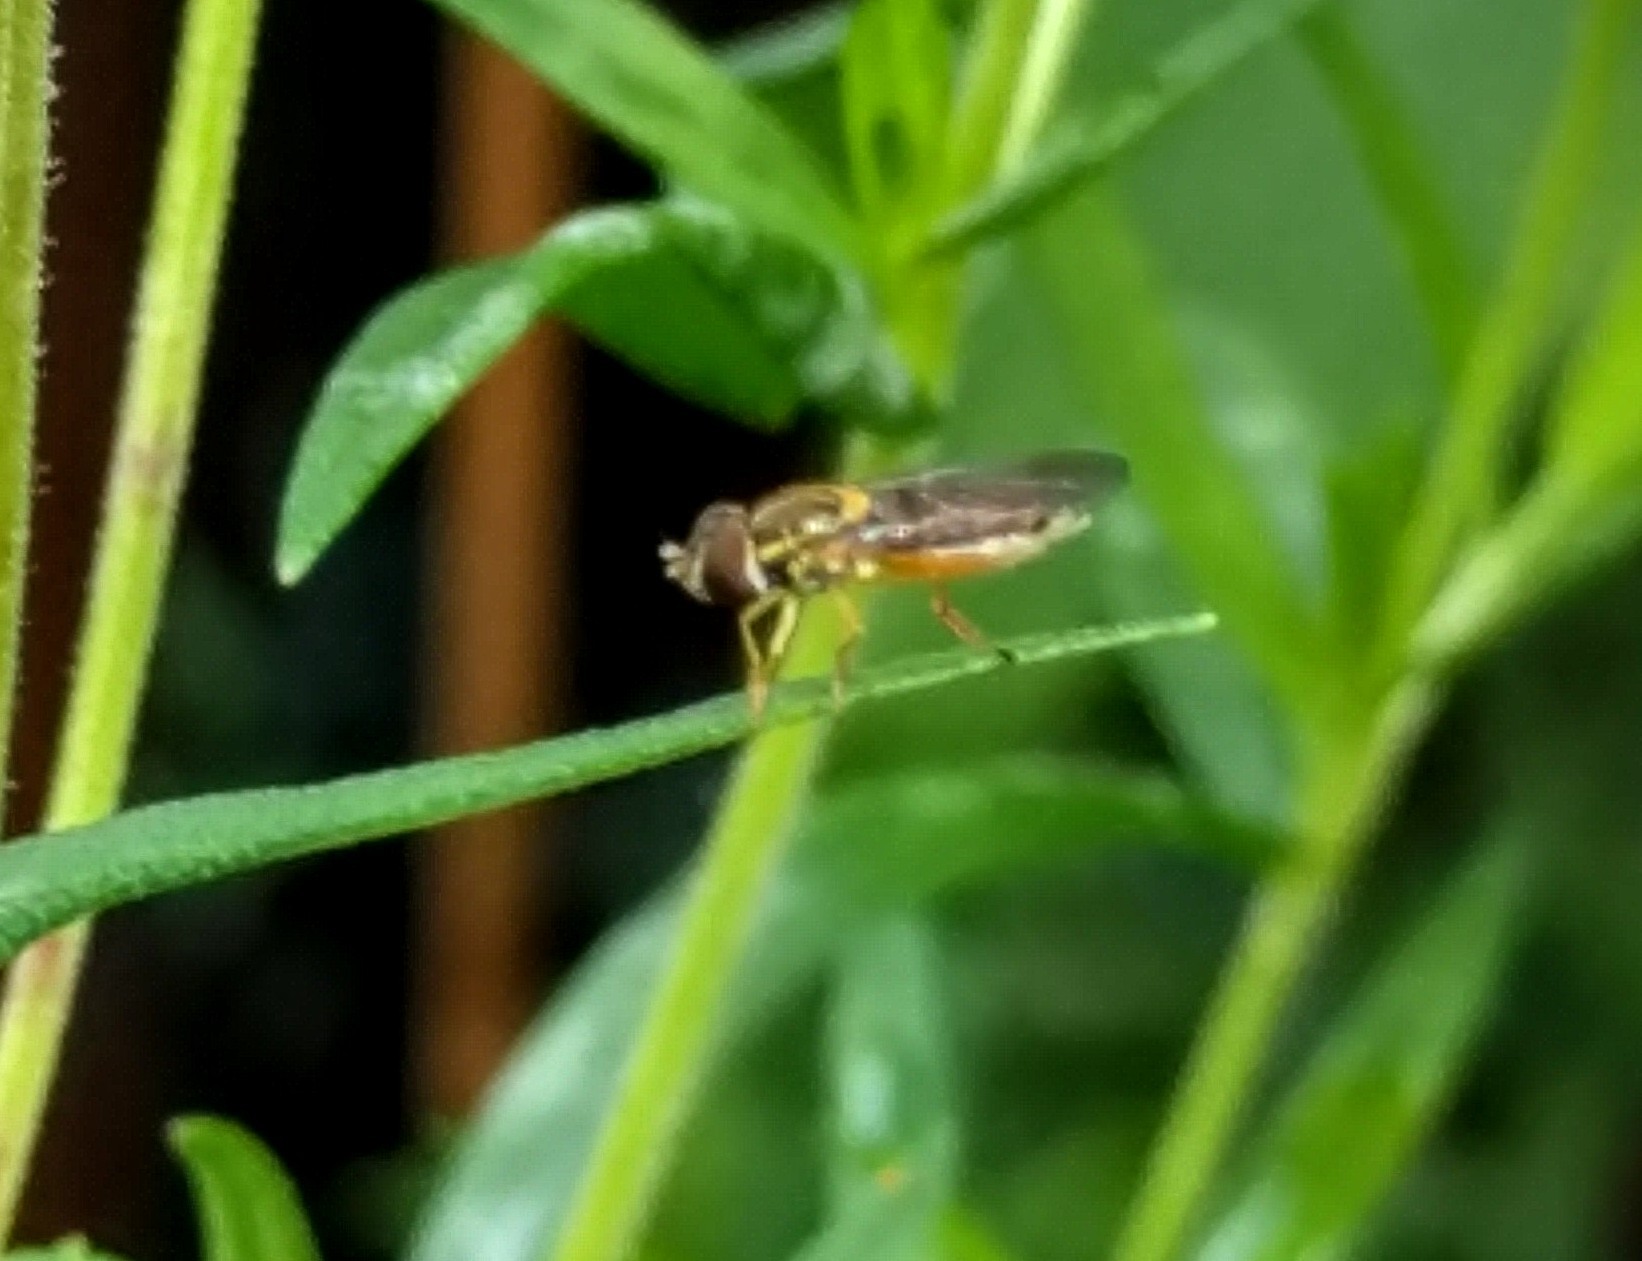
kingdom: Animalia
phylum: Arthropoda
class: Insecta
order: Diptera
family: Syrphidae
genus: Toxomerus
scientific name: Toxomerus marginatus
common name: Syrphid fly
